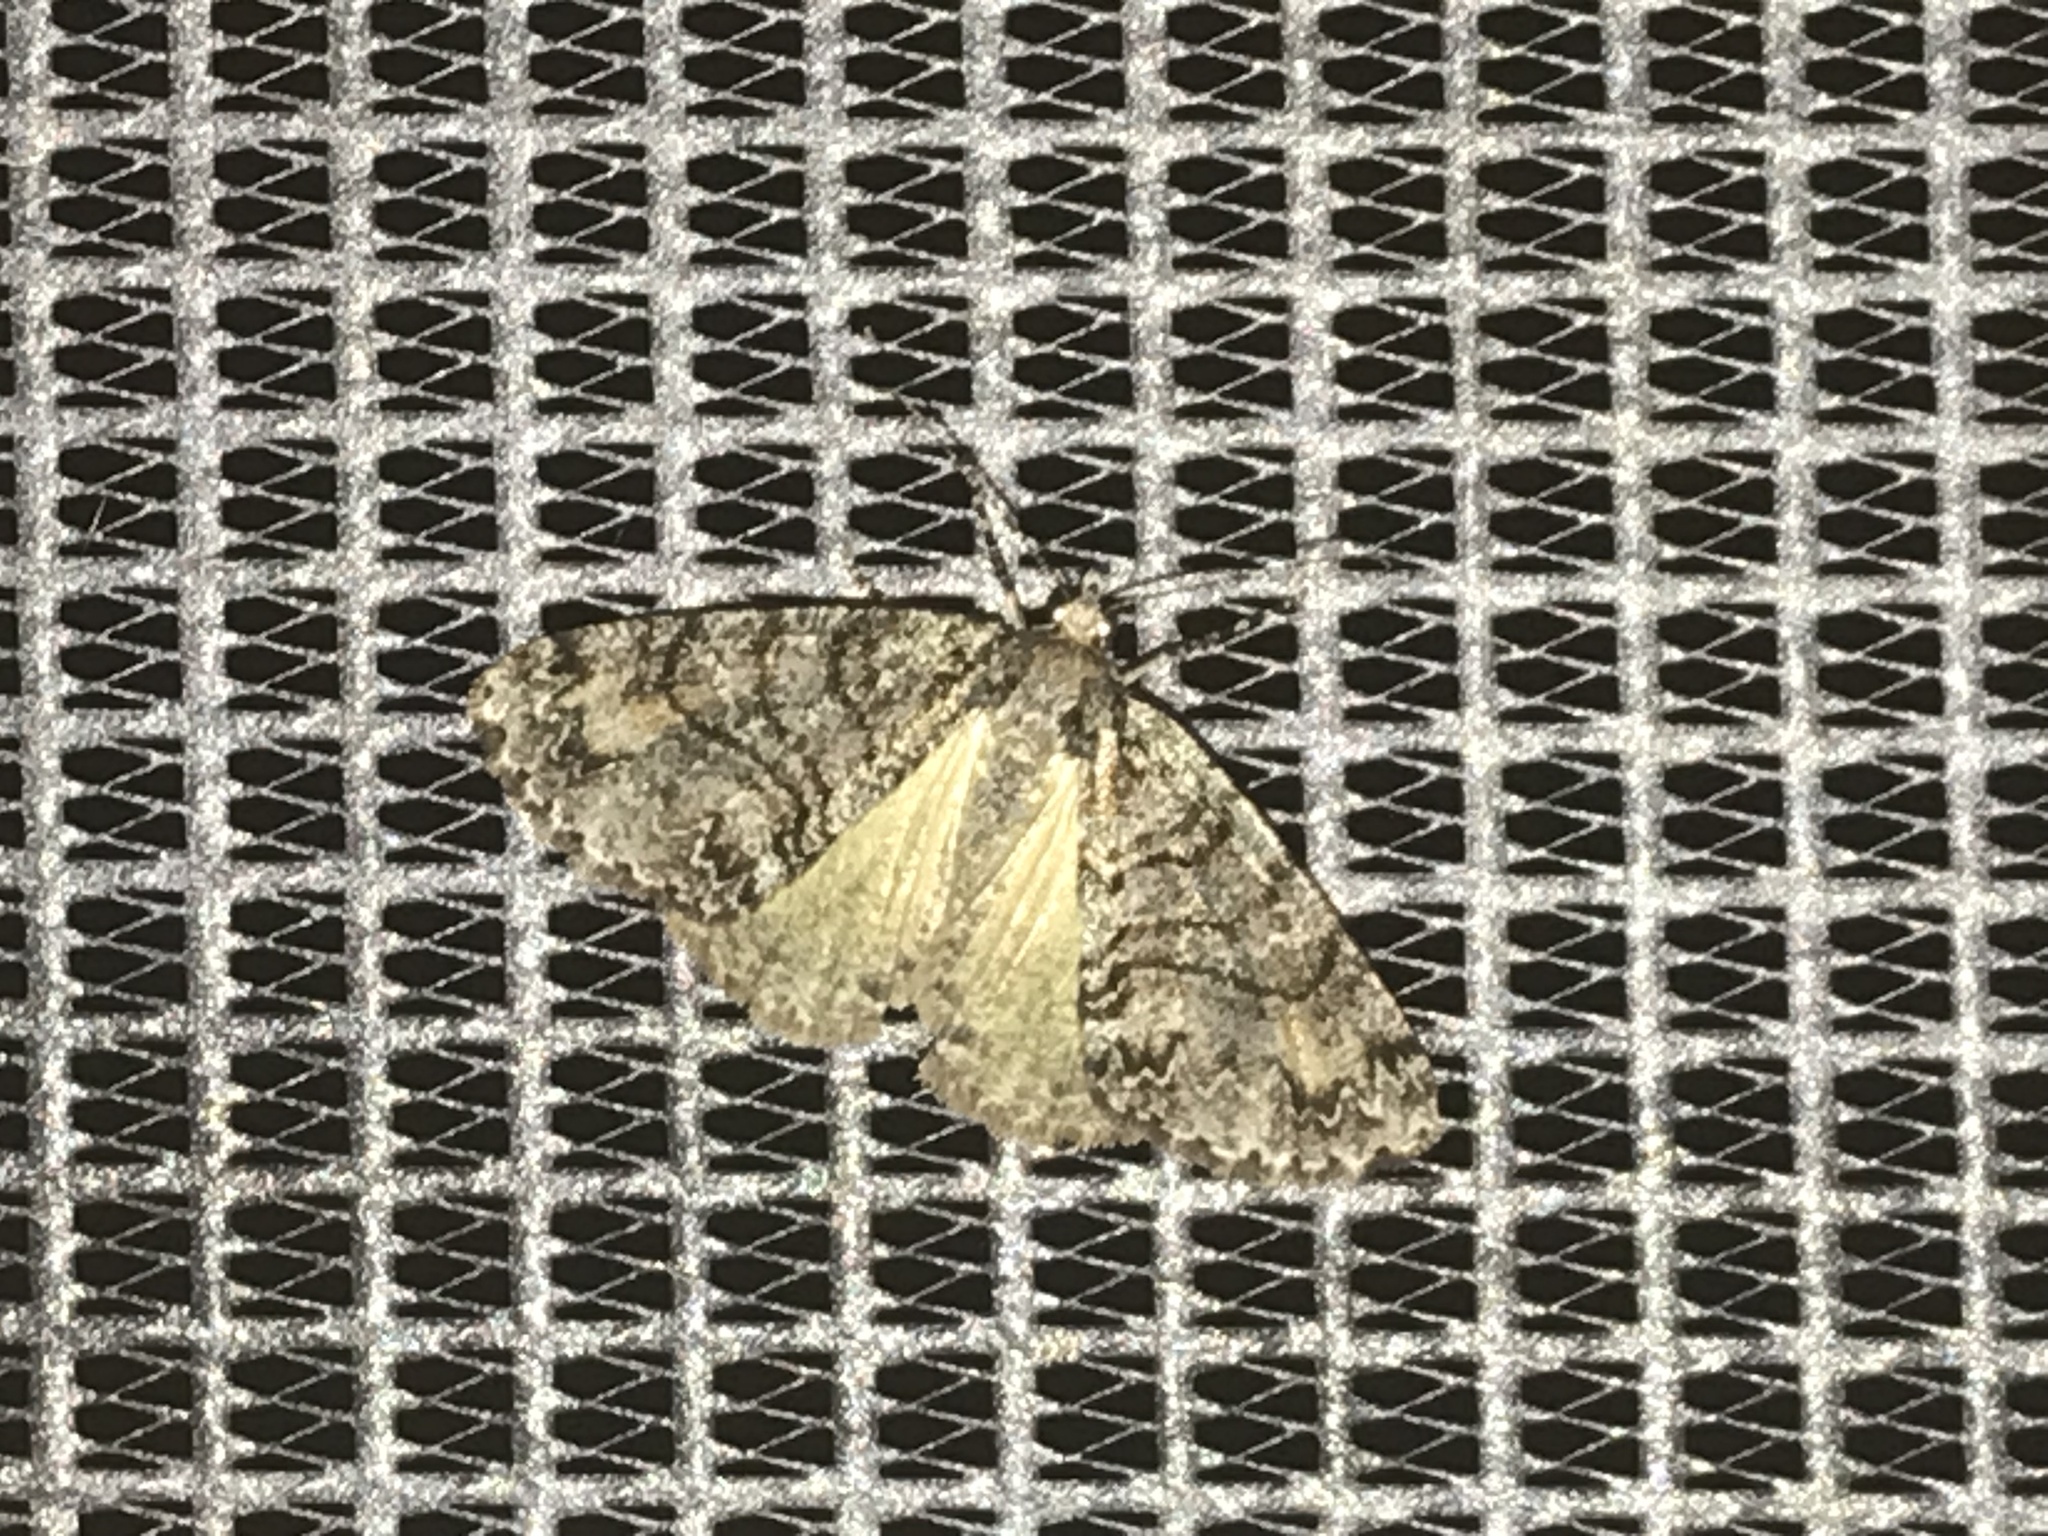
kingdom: Animalia
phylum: Arthropoda
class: Insecta
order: Lepidoptera
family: Geometridae
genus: Pseudocoremia
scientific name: Pseudocoremia suavis
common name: Common forest looper
